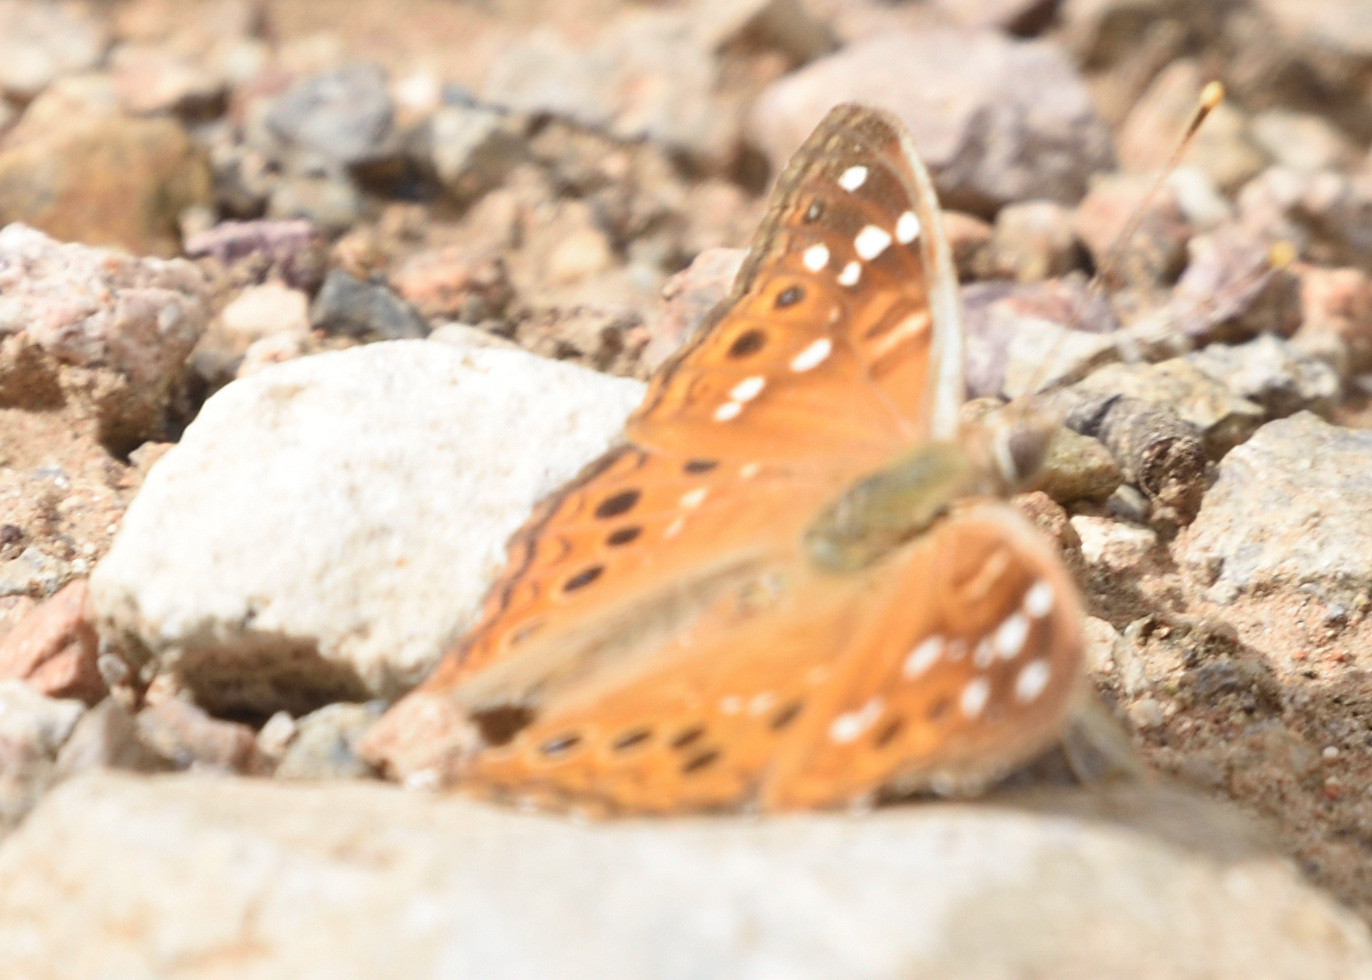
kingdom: Animalia
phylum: Arthropoda
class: Insecta
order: Lepidoptera
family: Nymphalidae
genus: Asterocampa
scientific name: Asterocampa leilia
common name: Empress leilia
